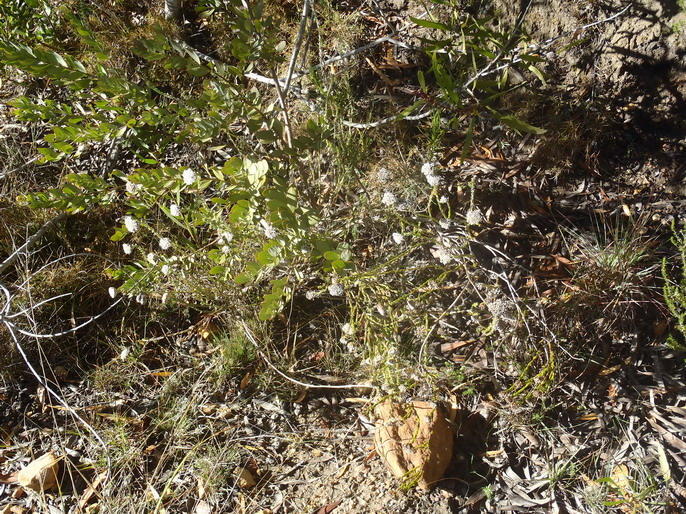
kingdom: Plantae
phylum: Tracheophyta
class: Magnoliopsida
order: Asterales
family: Asteraceae
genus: Metalasia
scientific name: Metalasia pungens
